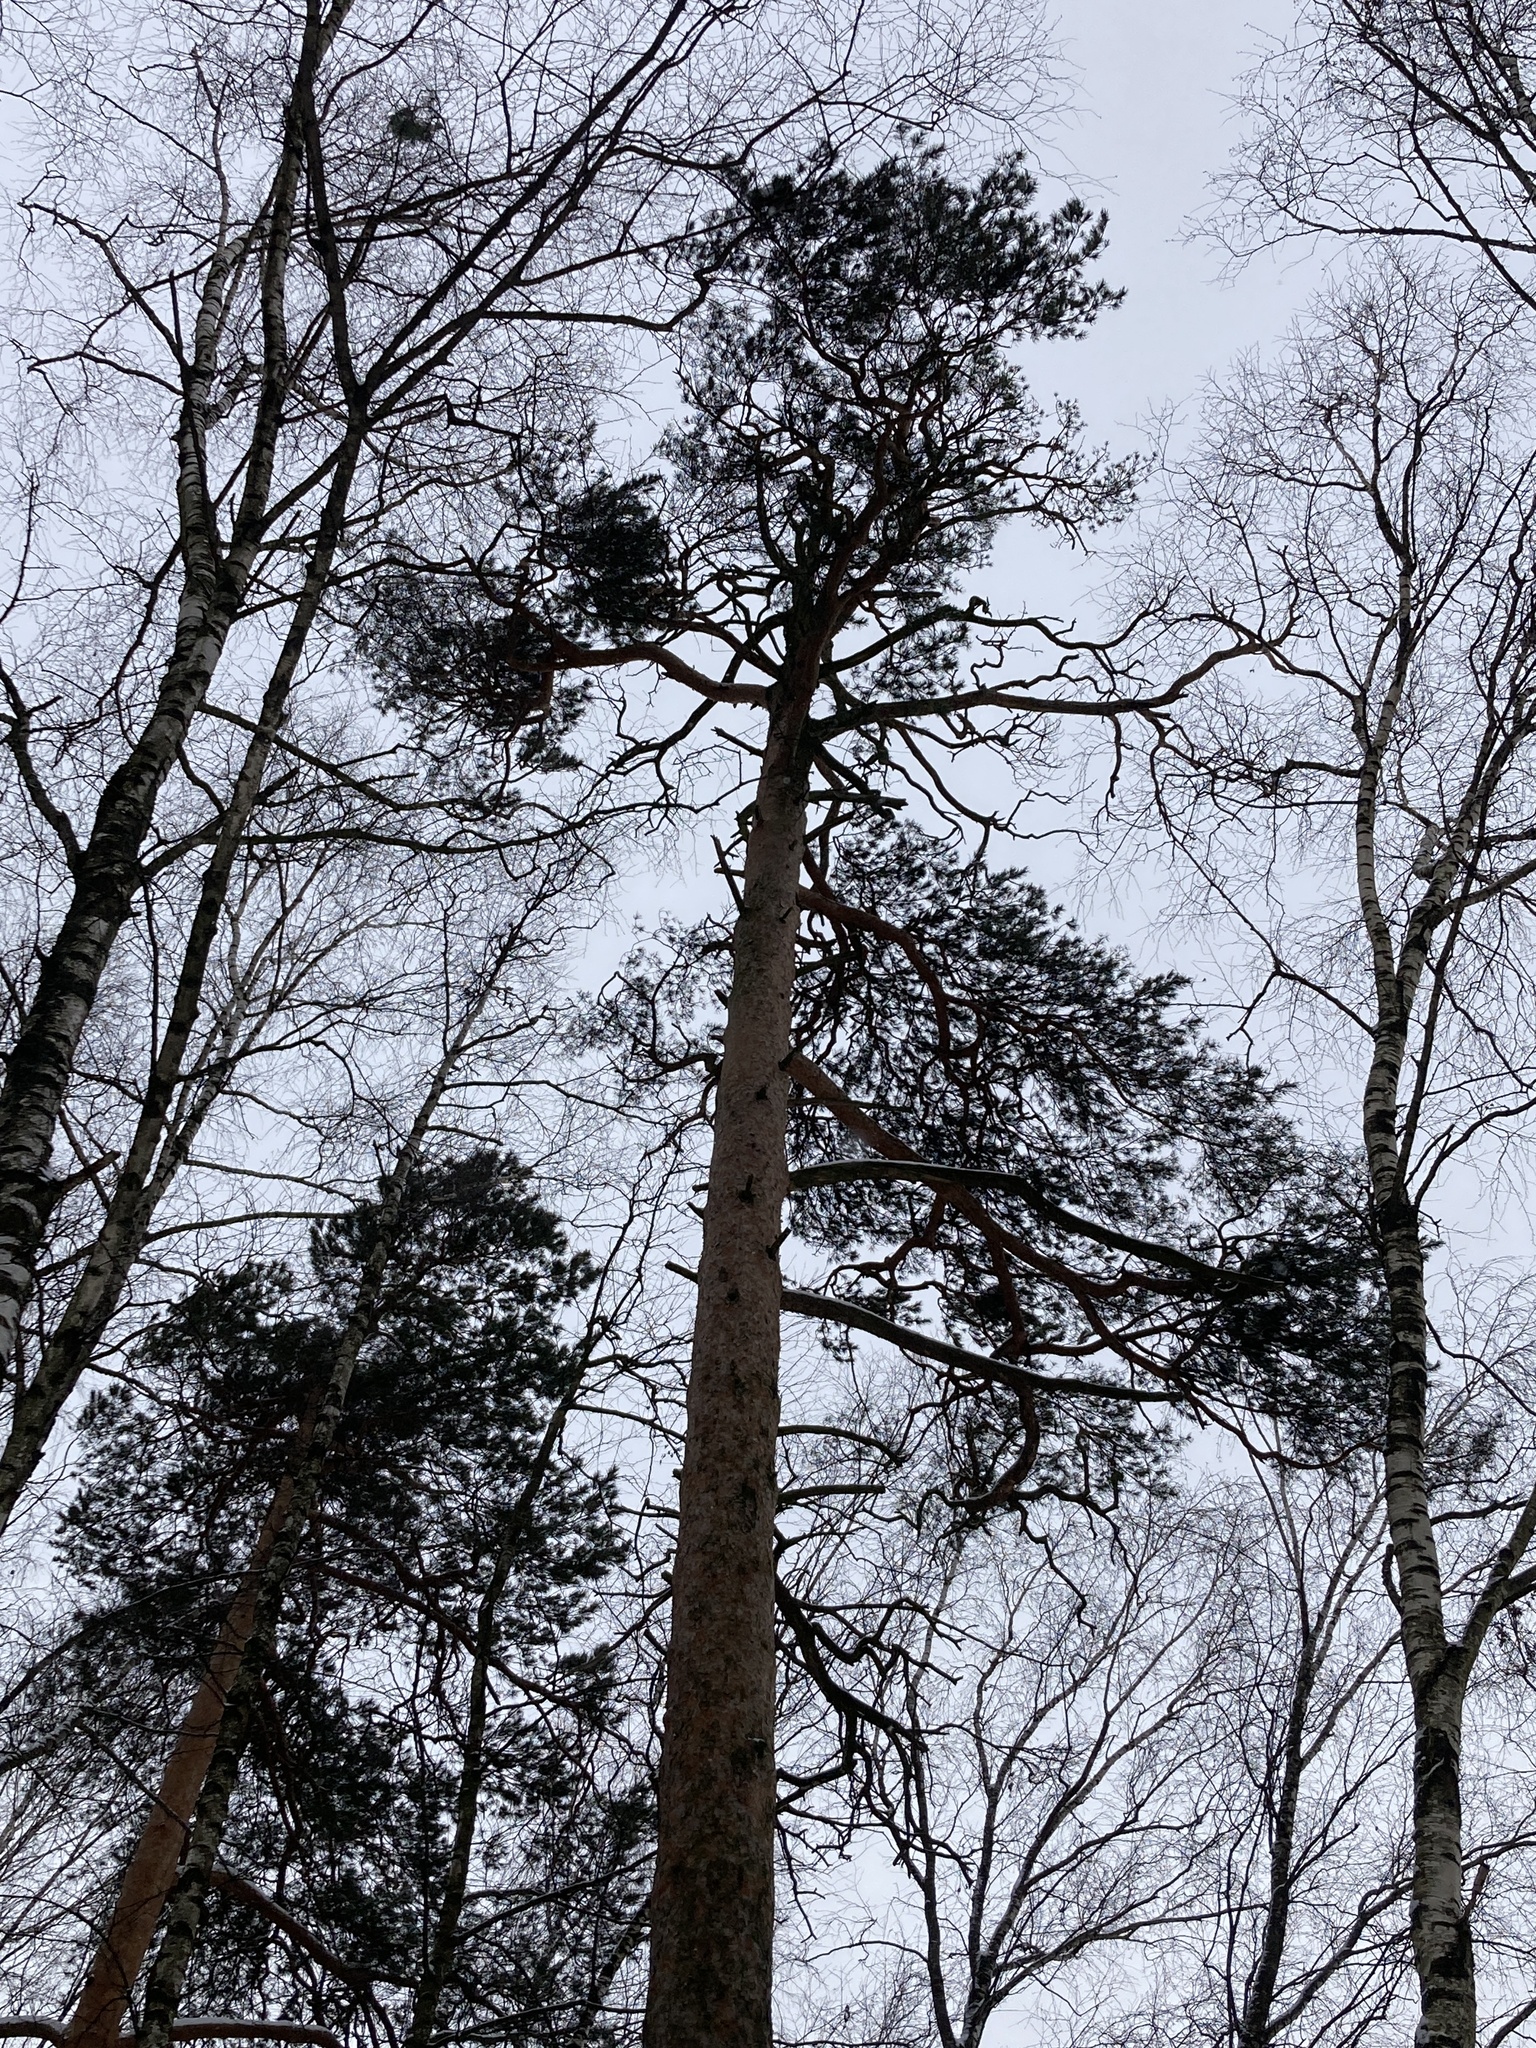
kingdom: Plantae
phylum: Tracheophyta
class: Pinopsida
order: Pinales
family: Pinaceae
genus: Pinus
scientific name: Pinus sylvestris
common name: Scots pine
